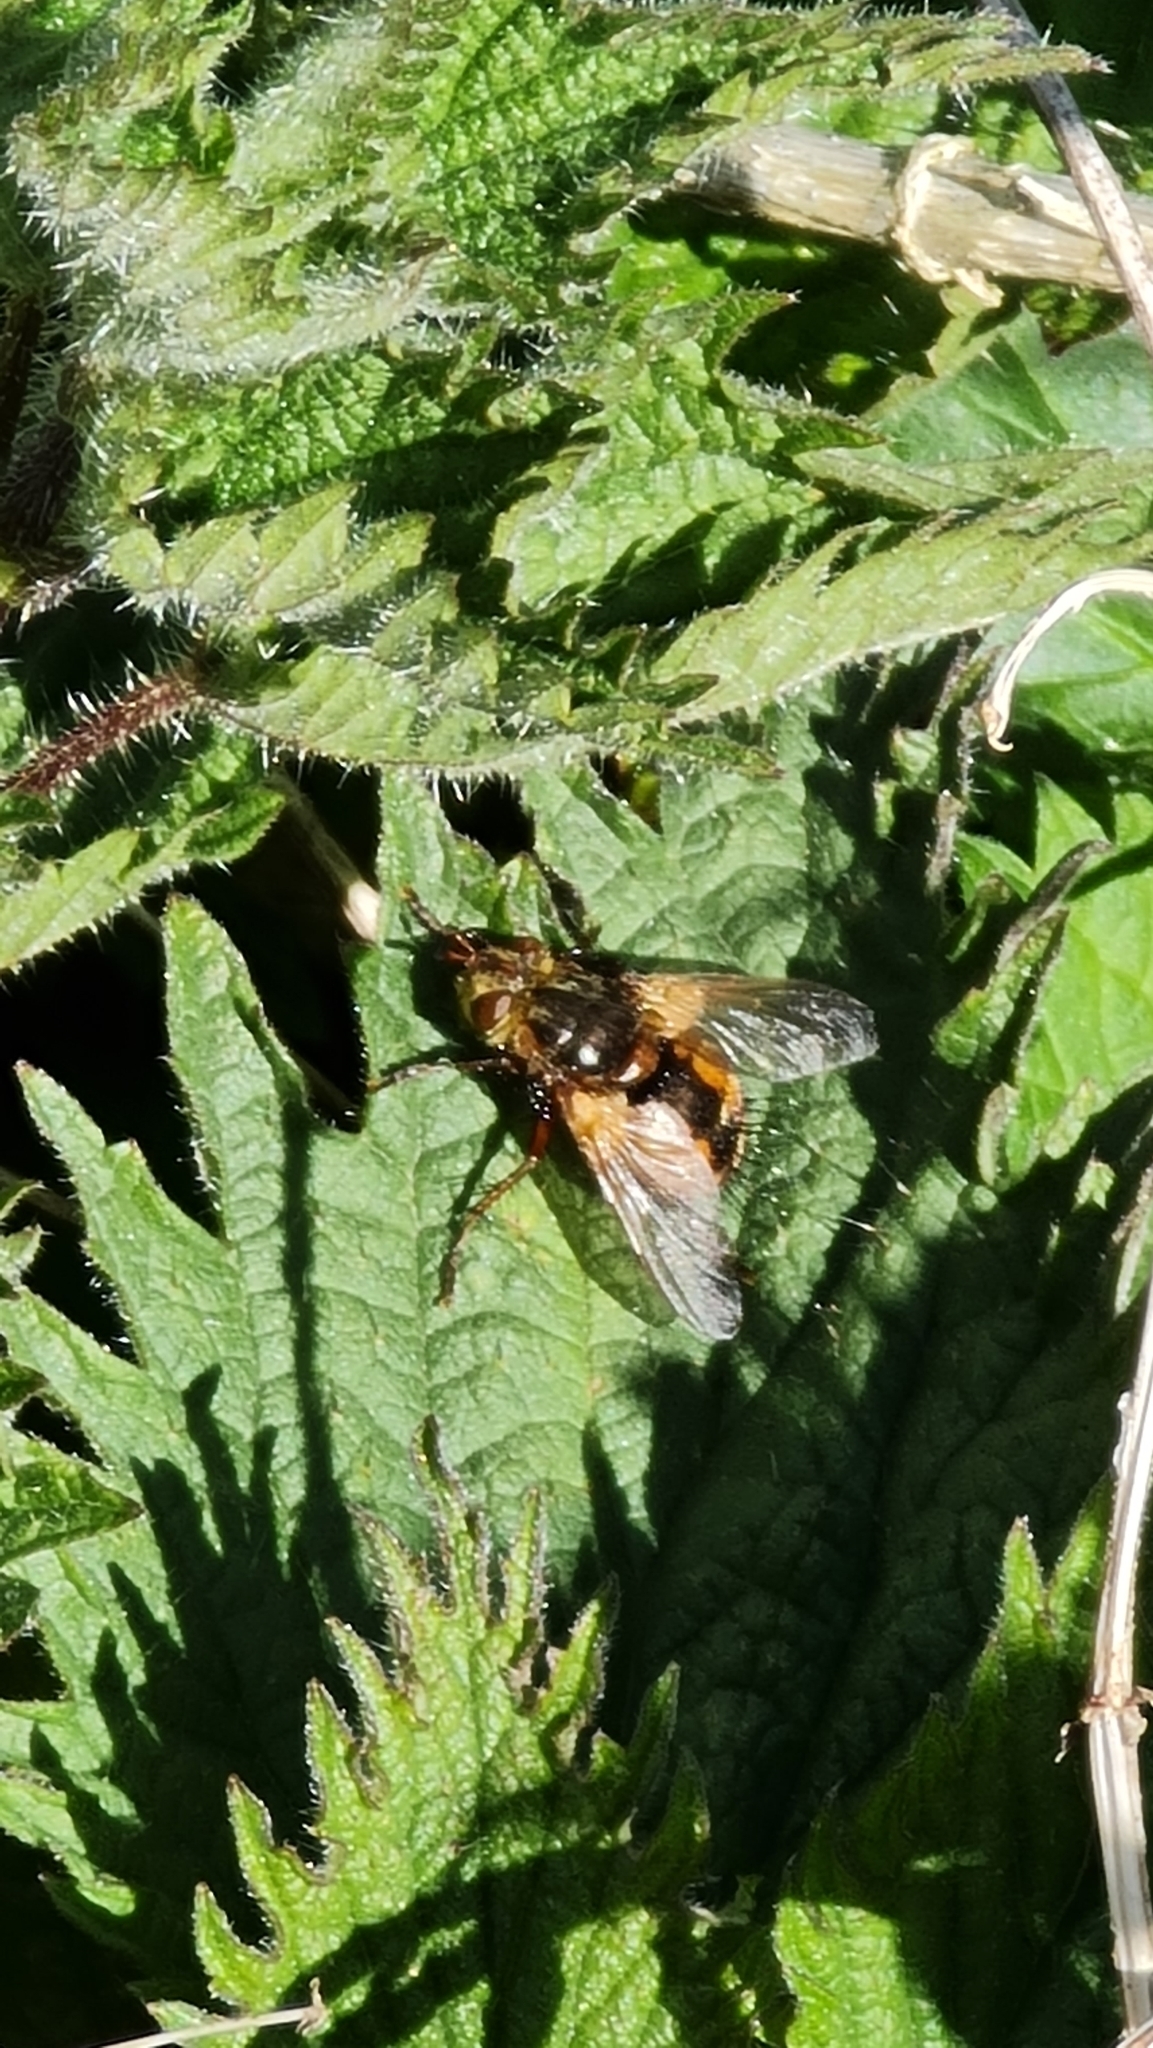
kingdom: Animalia
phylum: Arthropoda
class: Insecta
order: Diptera
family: Tachinidae
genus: Tachina
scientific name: Tachina fera
